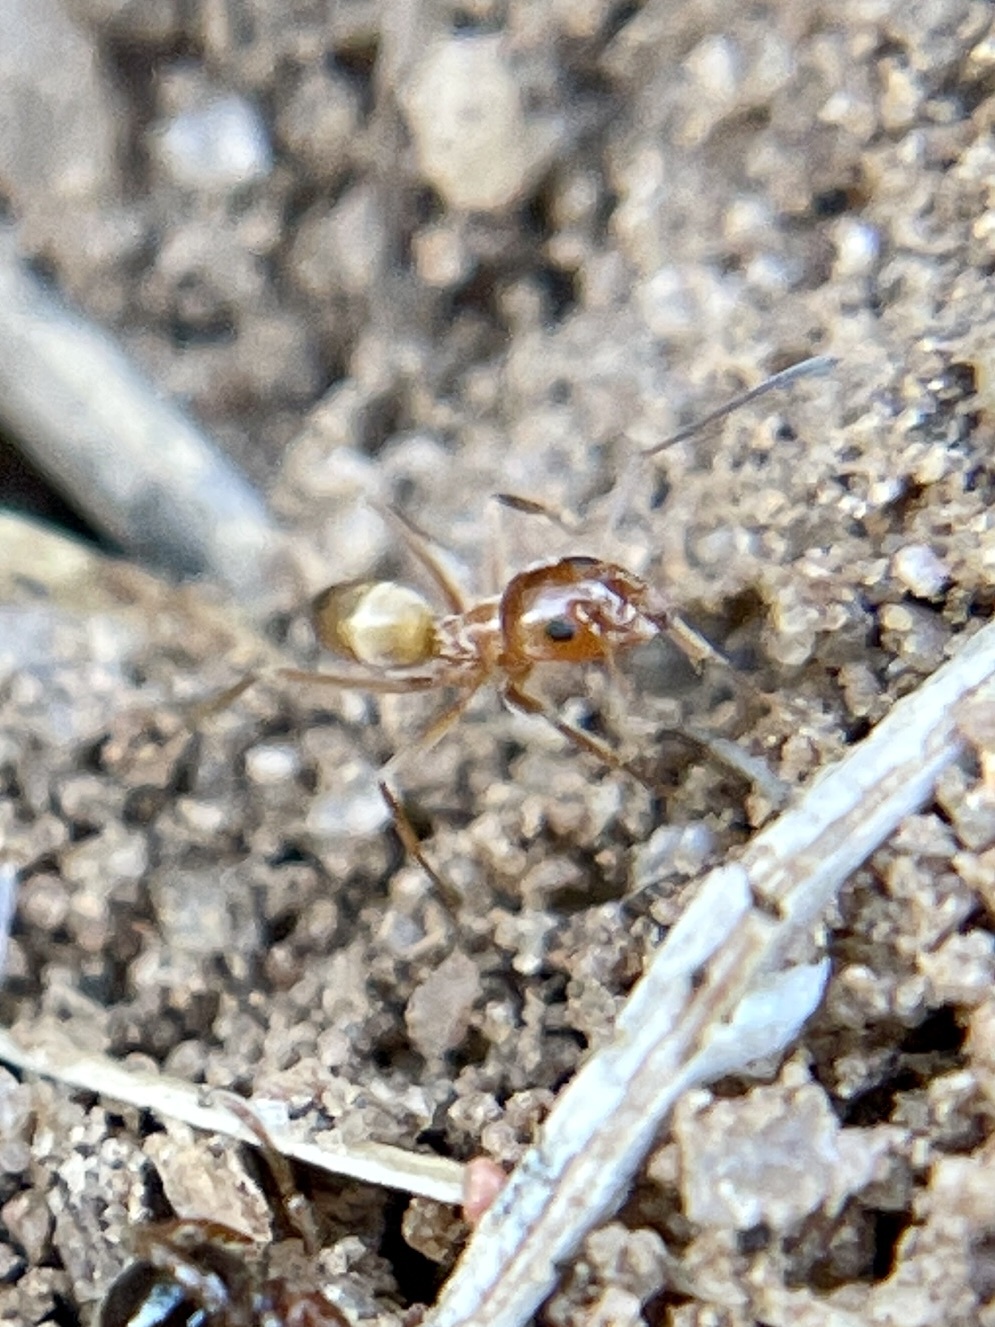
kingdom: Animalia
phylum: Arthropoda
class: Insecta
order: Hymenoptera
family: Formicidae
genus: Dorymyrmex
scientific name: Dorymyrmex flavus
